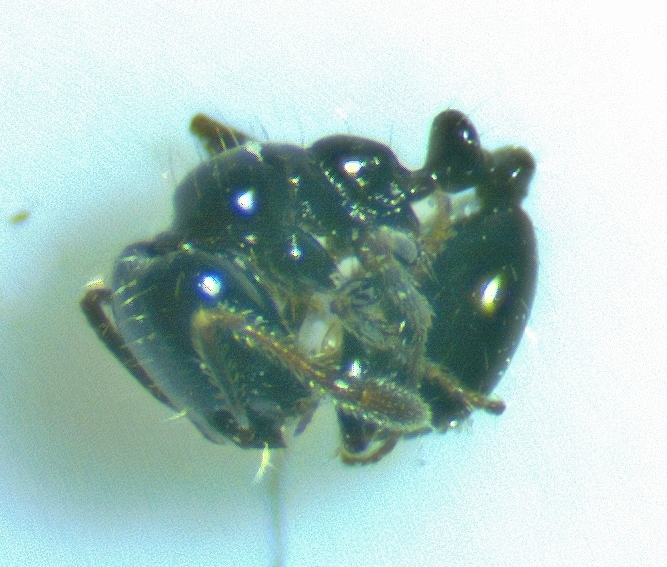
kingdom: Animalia
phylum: Arthropoda
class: Insecta
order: Hymenoptera
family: Formicidae
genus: Monomorium
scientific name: Monomorium minimum
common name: Little black ant
